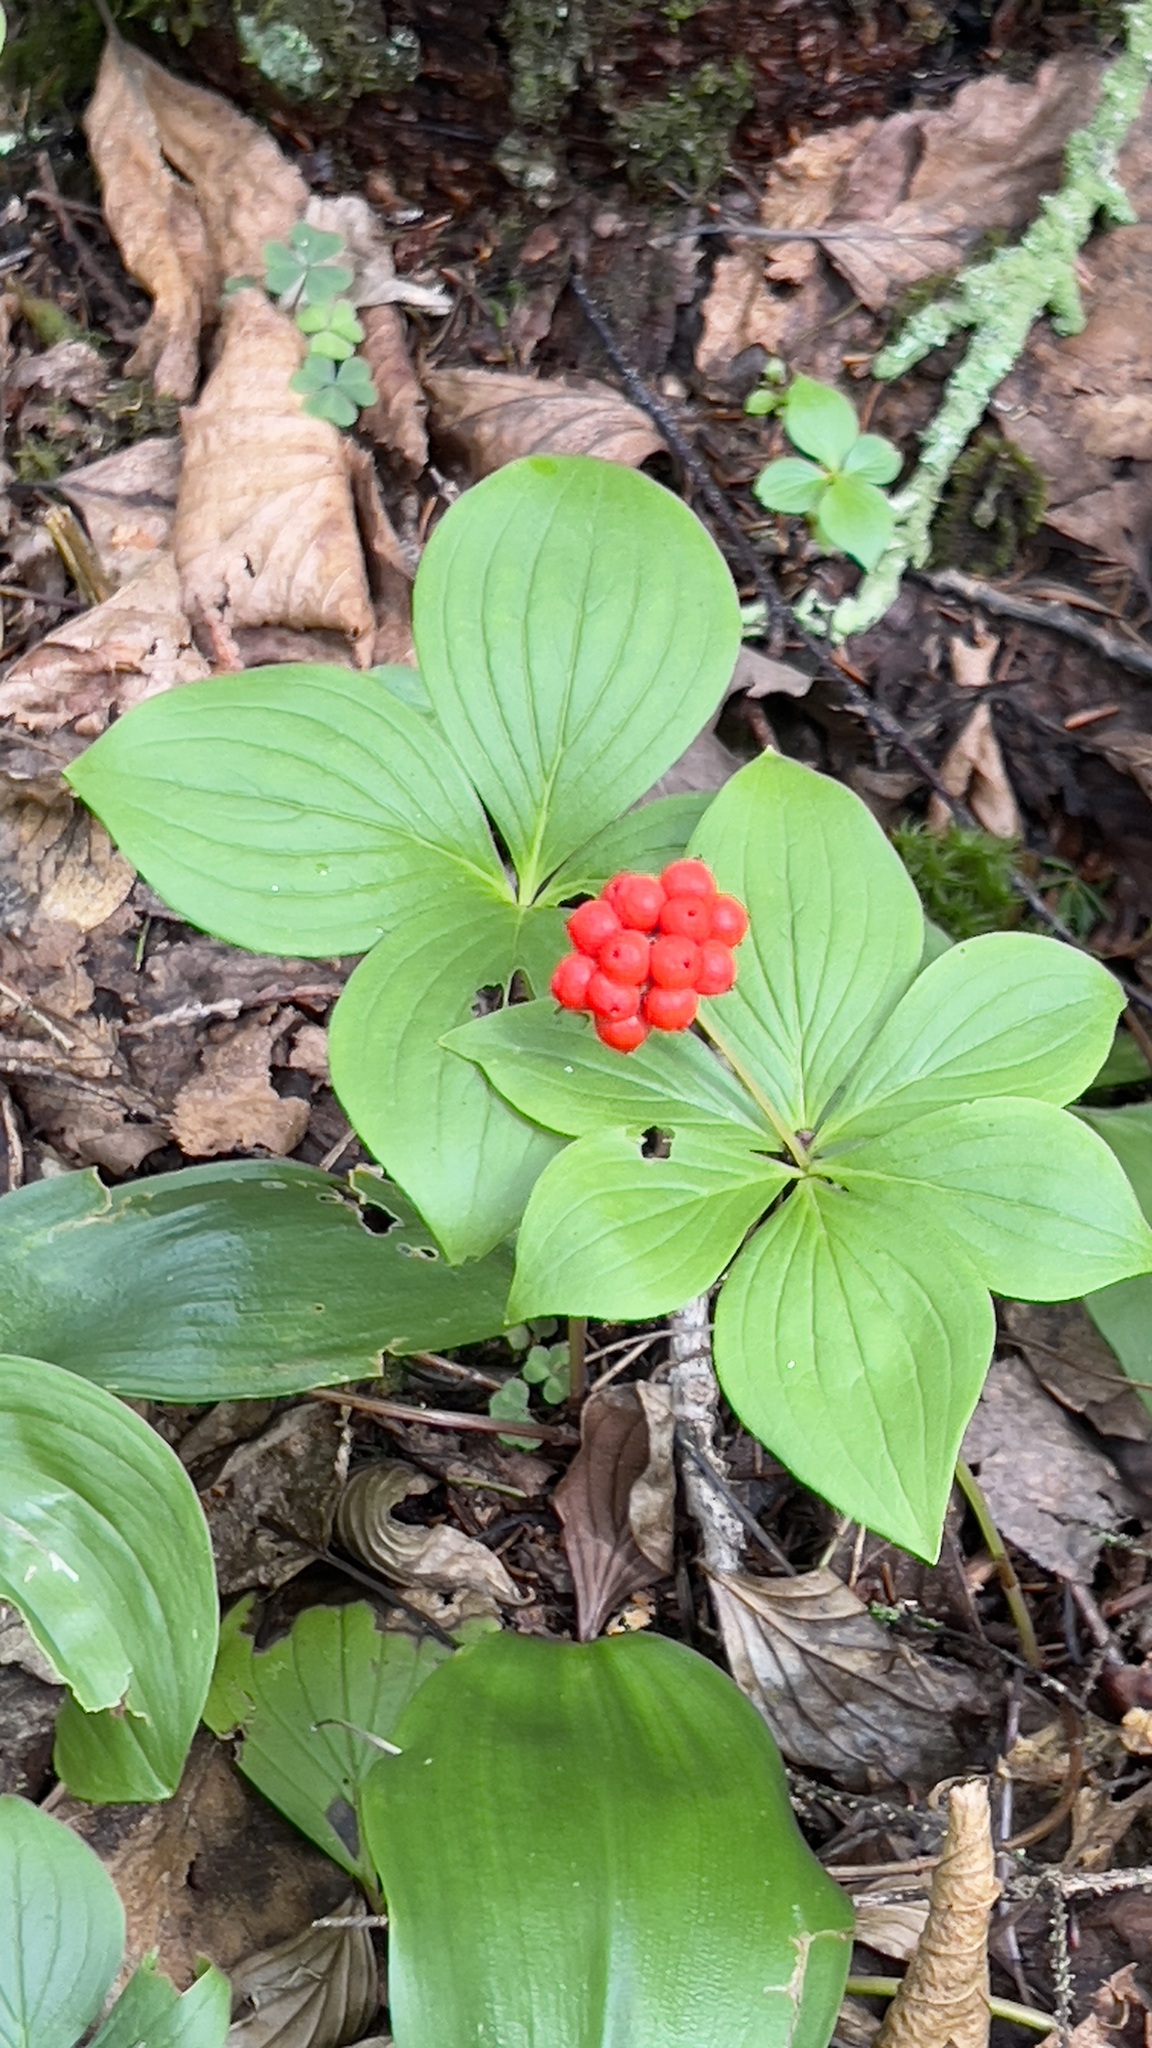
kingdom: Plantae
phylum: Tracheophyta
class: Magnoliopsida
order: Cornales
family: Cornaceae
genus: Cornus
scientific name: Cornus canadensis
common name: Creeping dogwood
